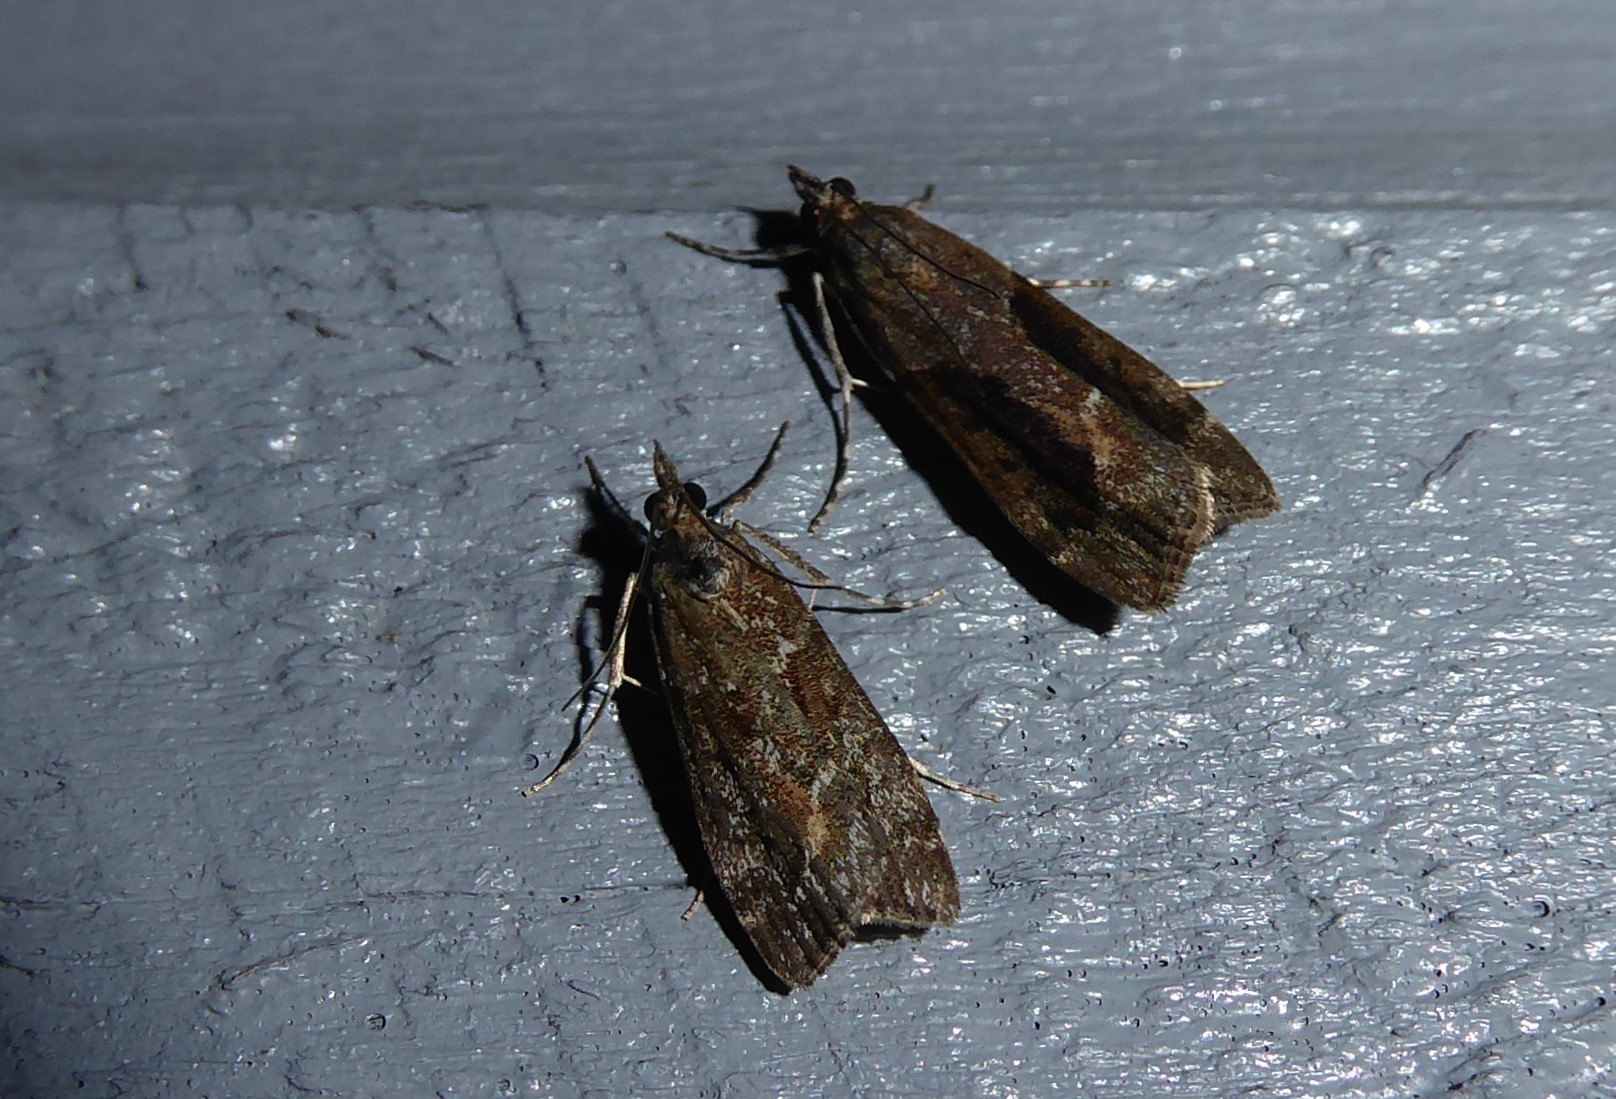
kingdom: Animalia
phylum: Arthropoda
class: Insecta
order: Lepidoptera
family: Crambidae
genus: Eudonia
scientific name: Eudonia submarginalis
